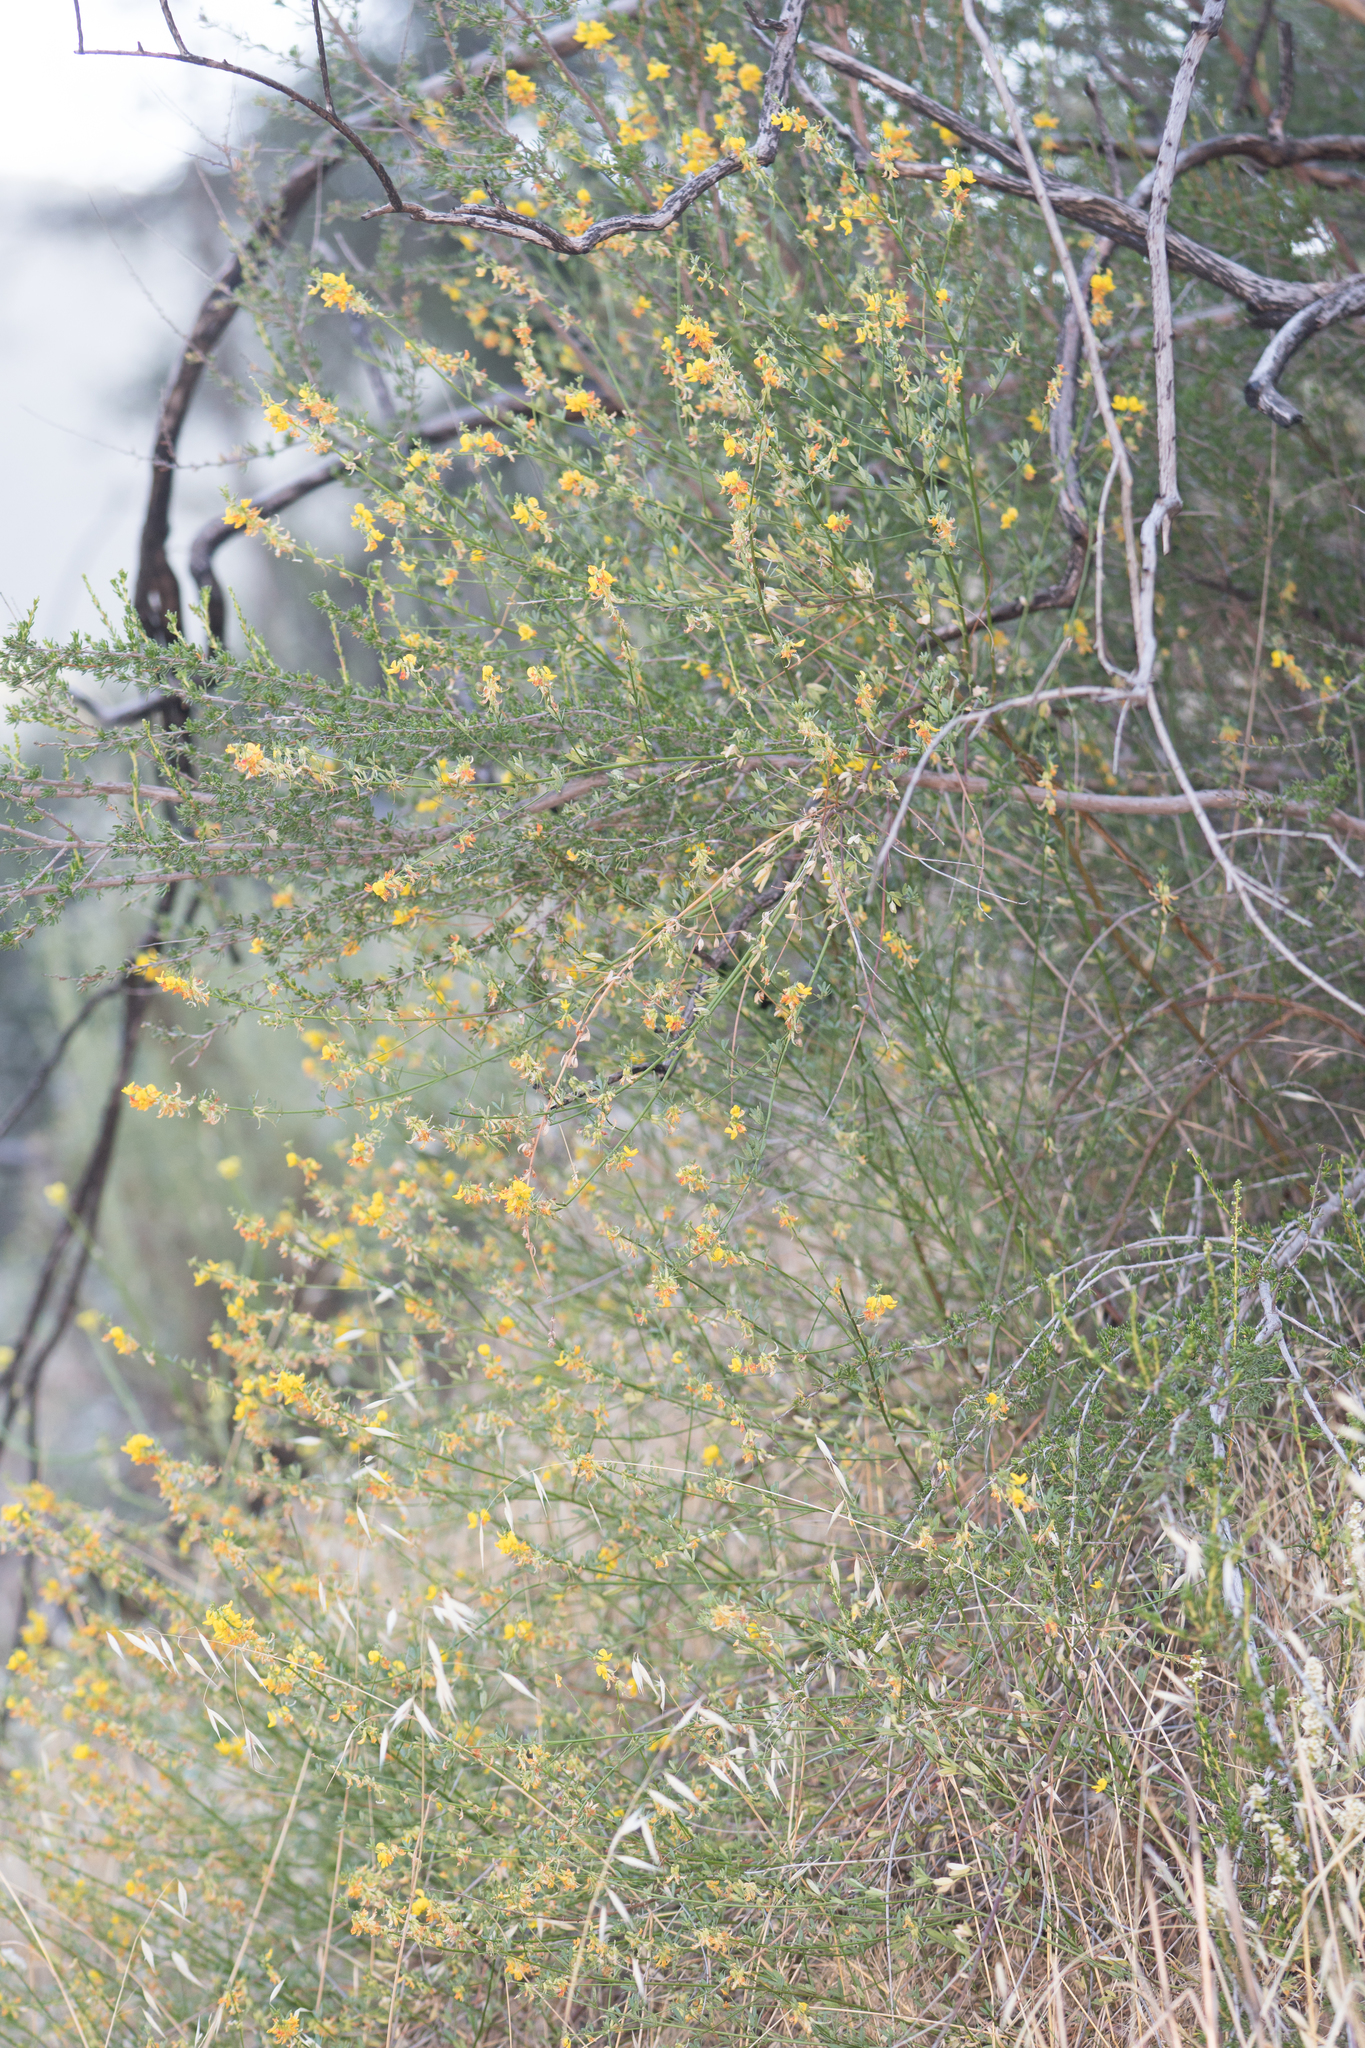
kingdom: Plantae
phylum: Tracheophyta
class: Magnoliopsida
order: Fabales
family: Fabaceae
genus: Acmispon
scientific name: Acmispon glaber
